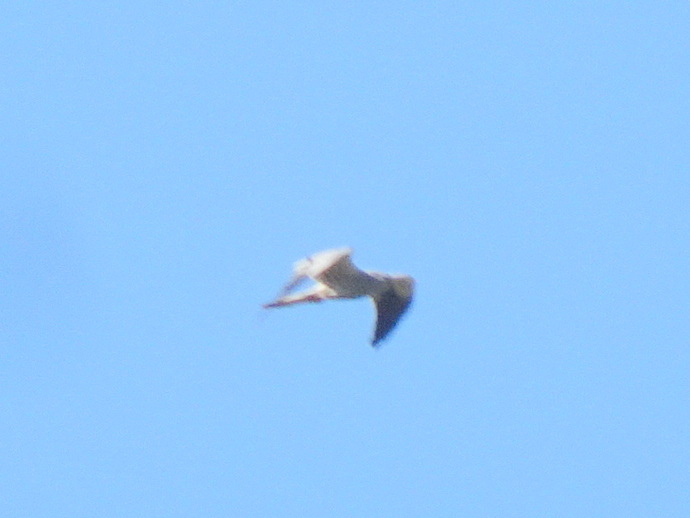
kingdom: Animalia
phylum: Chordata
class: Aves
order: Accipitriformes
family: Accipitridae
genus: Circus
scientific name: Circus pygargus
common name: Montagu's harrier
